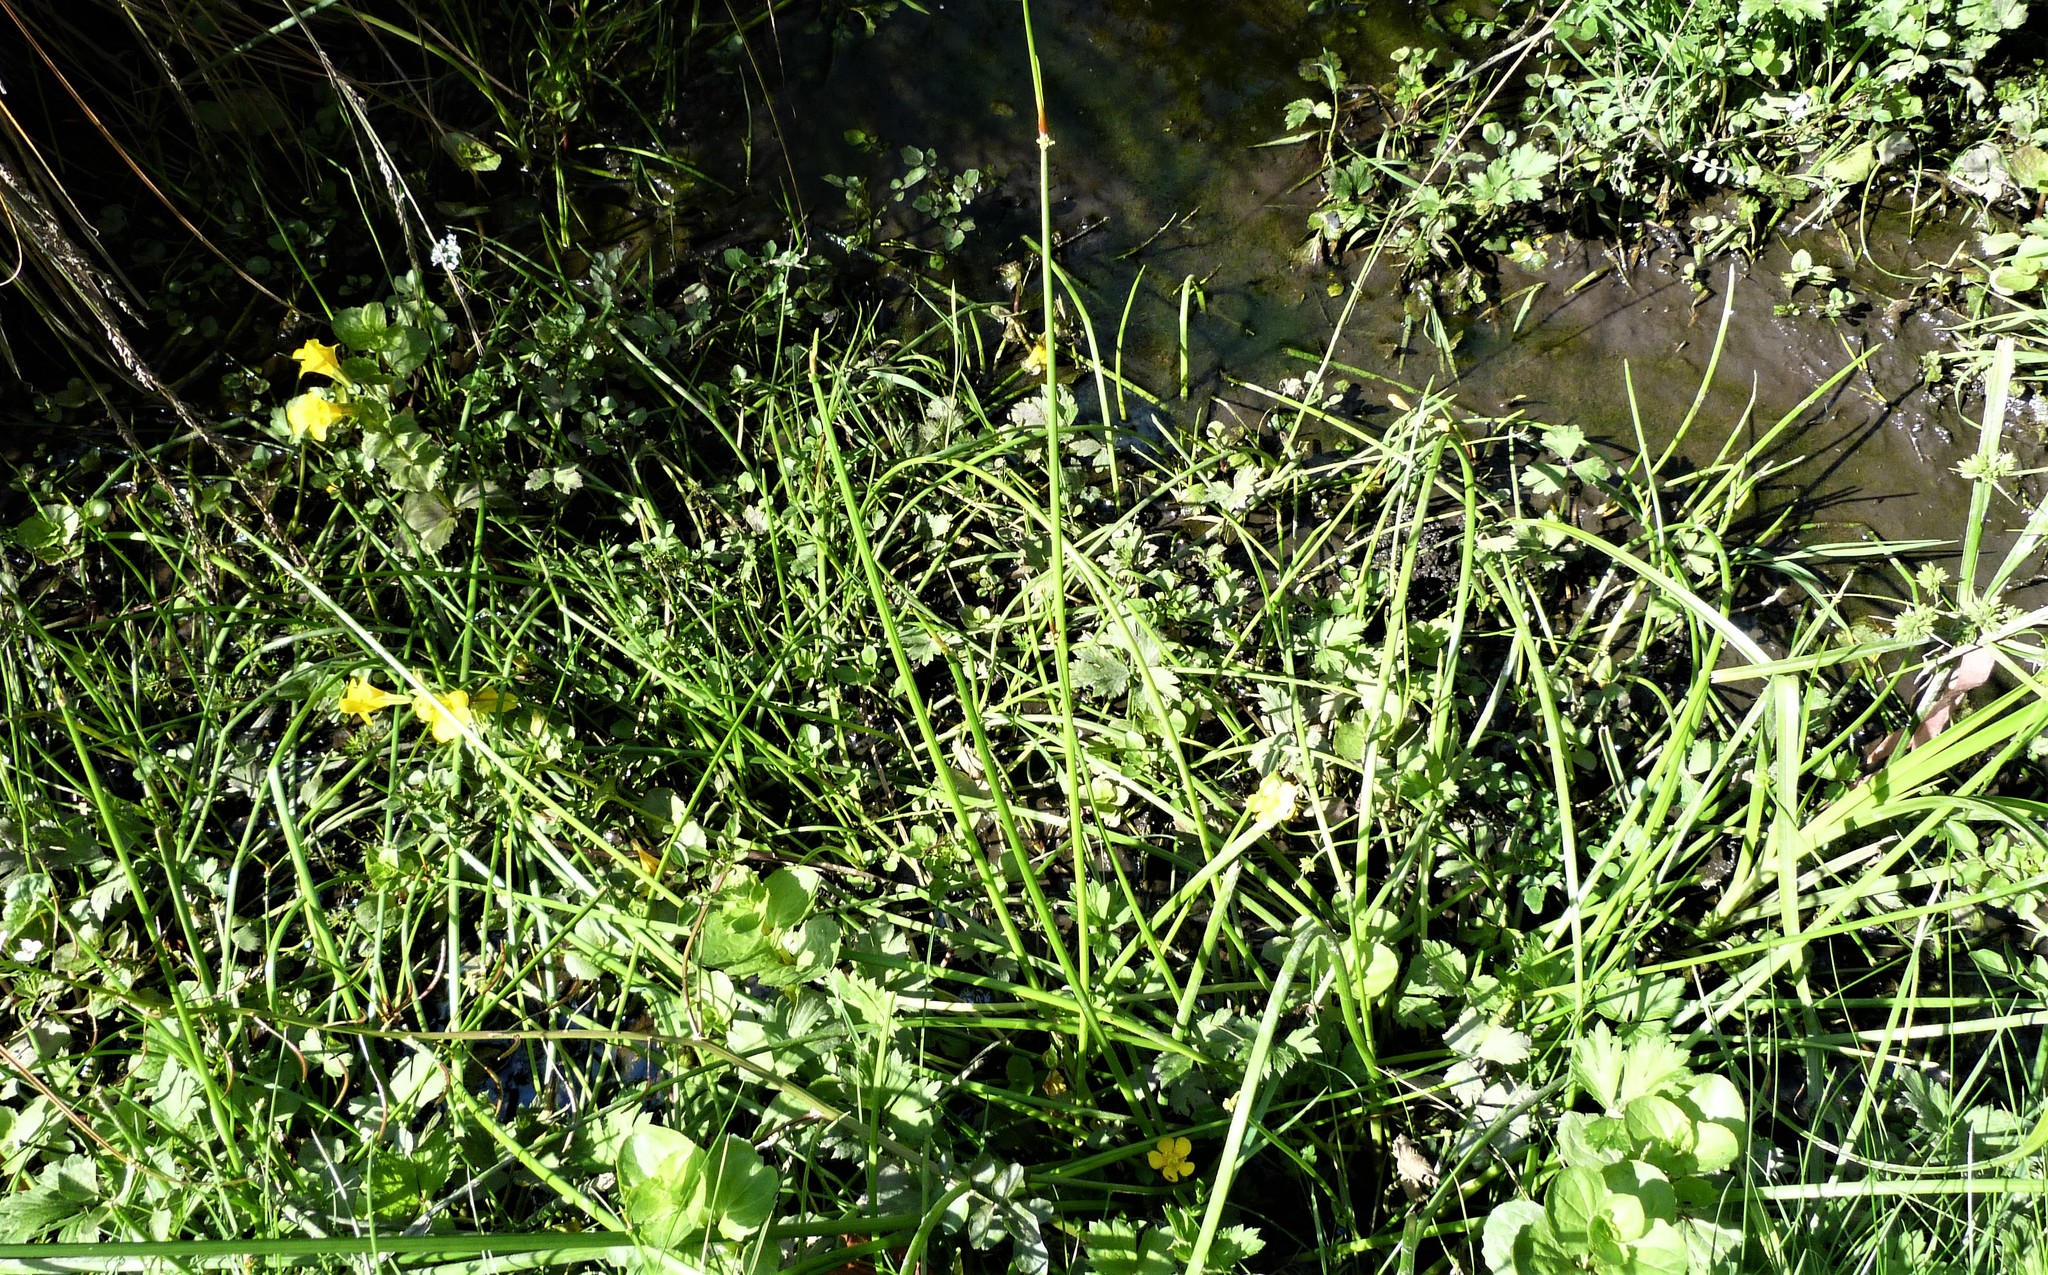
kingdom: Plantae
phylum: Tracheophyta
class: Liliopsida
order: Poales
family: Cyperaceae
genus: Isolepis
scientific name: Isolepis prolifera
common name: Proliferating bulrush
